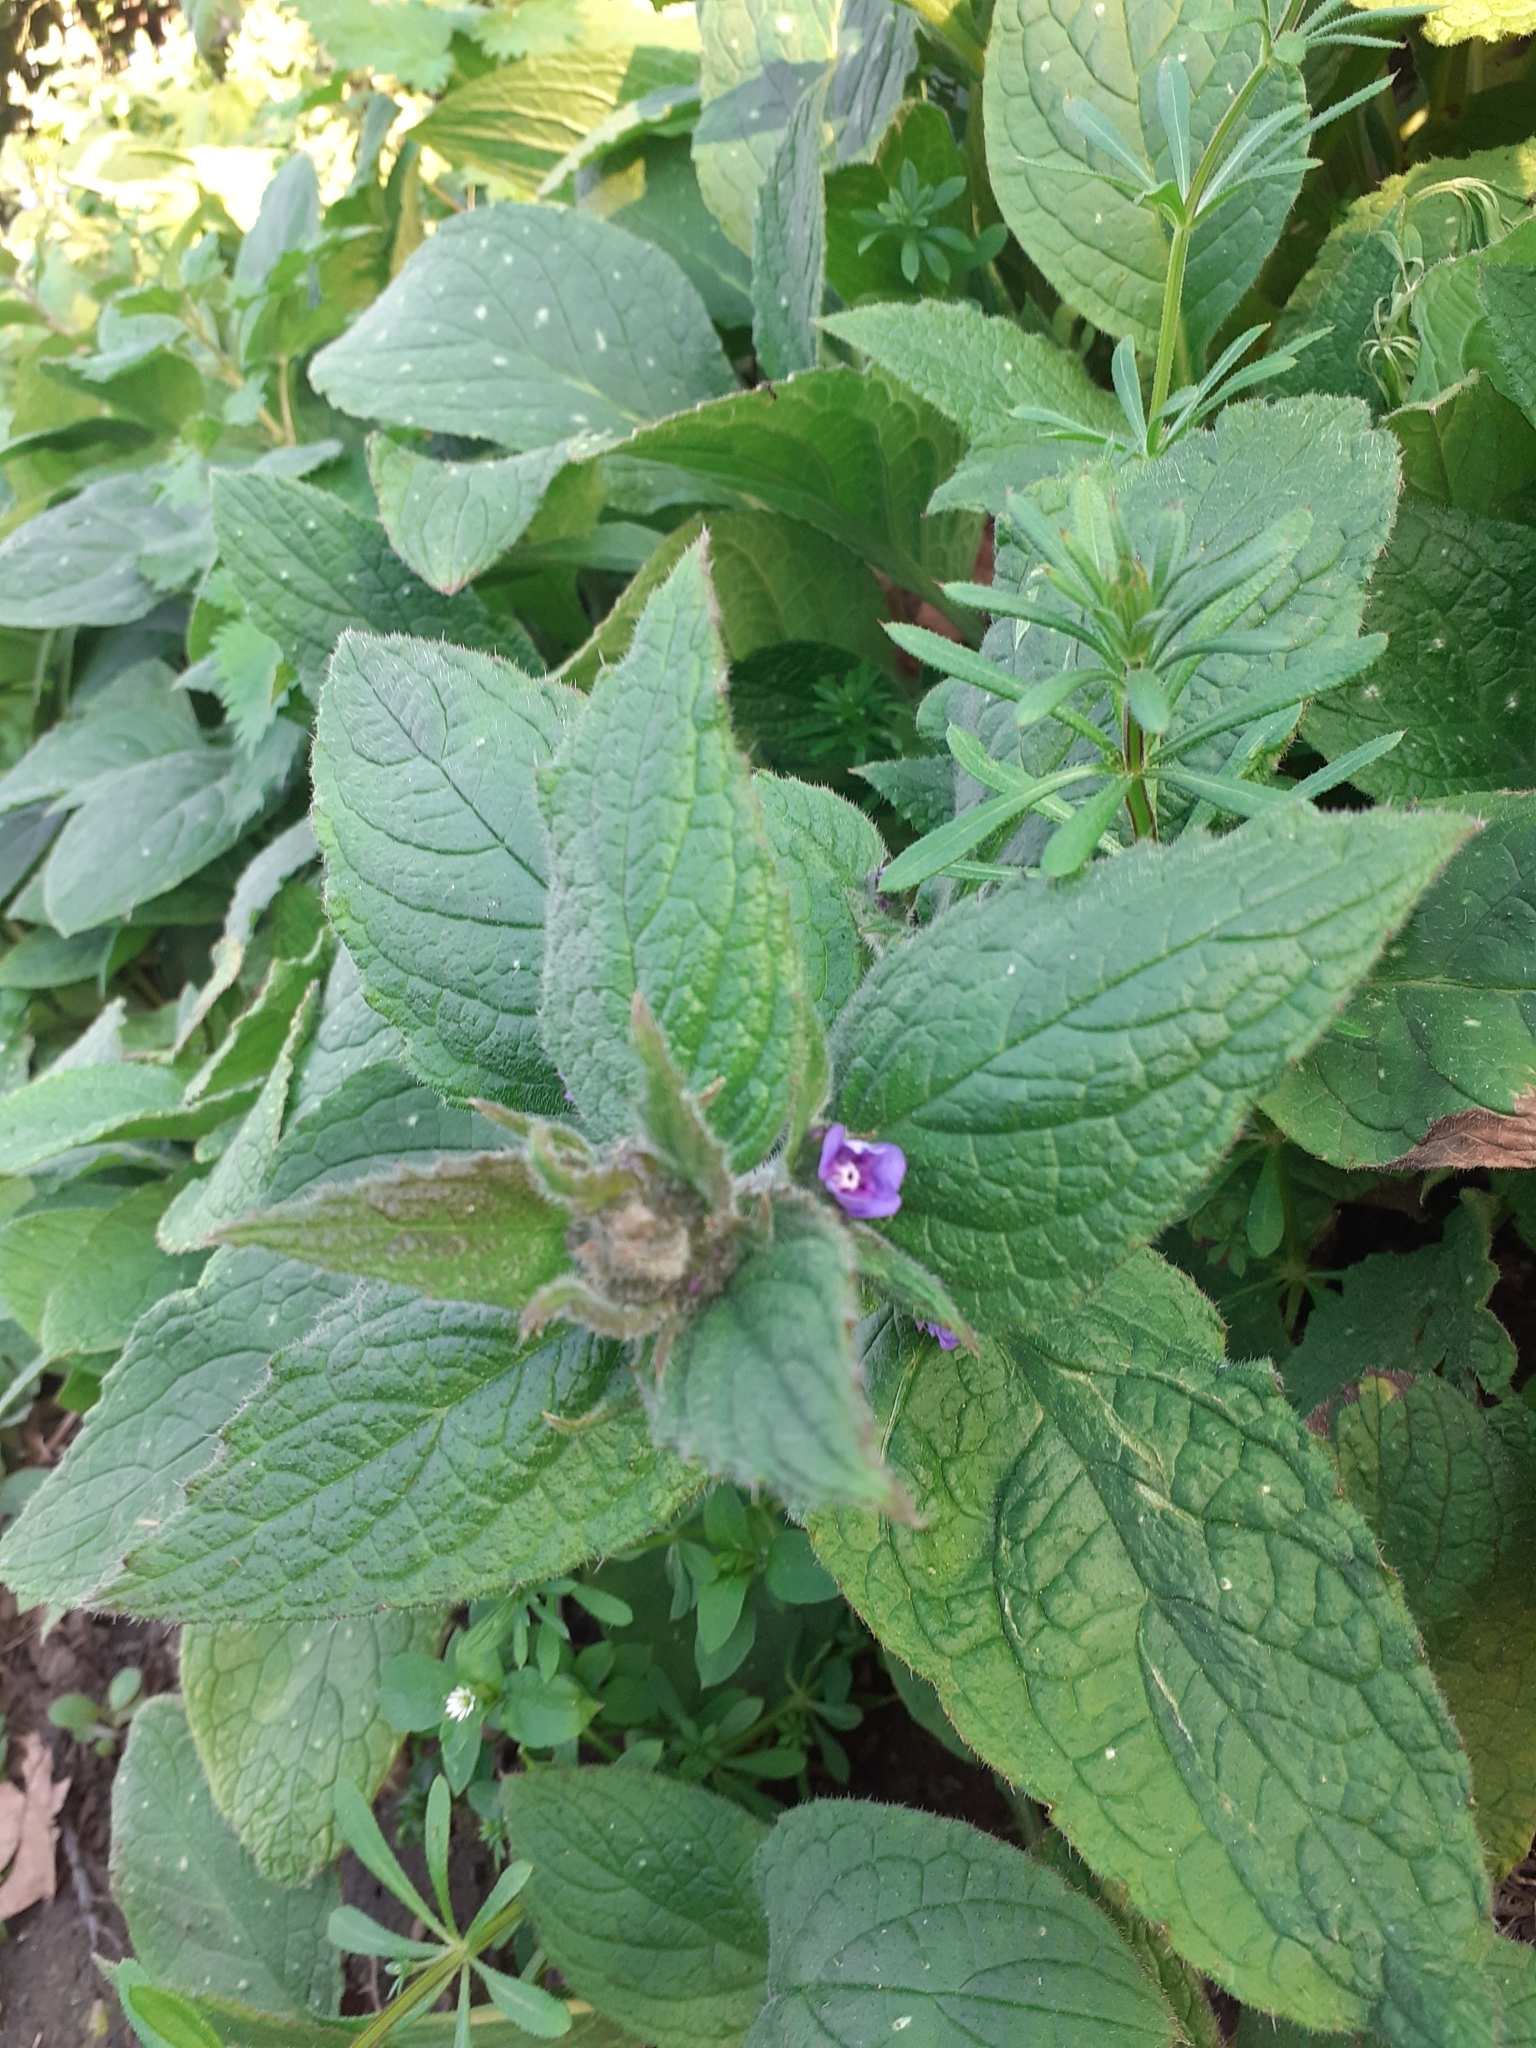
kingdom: Plantae
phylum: Tracheophyta
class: Magnoliopsida
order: Boraginales
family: Boraginaceae
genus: Pentaglottis
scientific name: Pentaglottis sempervirens
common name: Green alkanet
